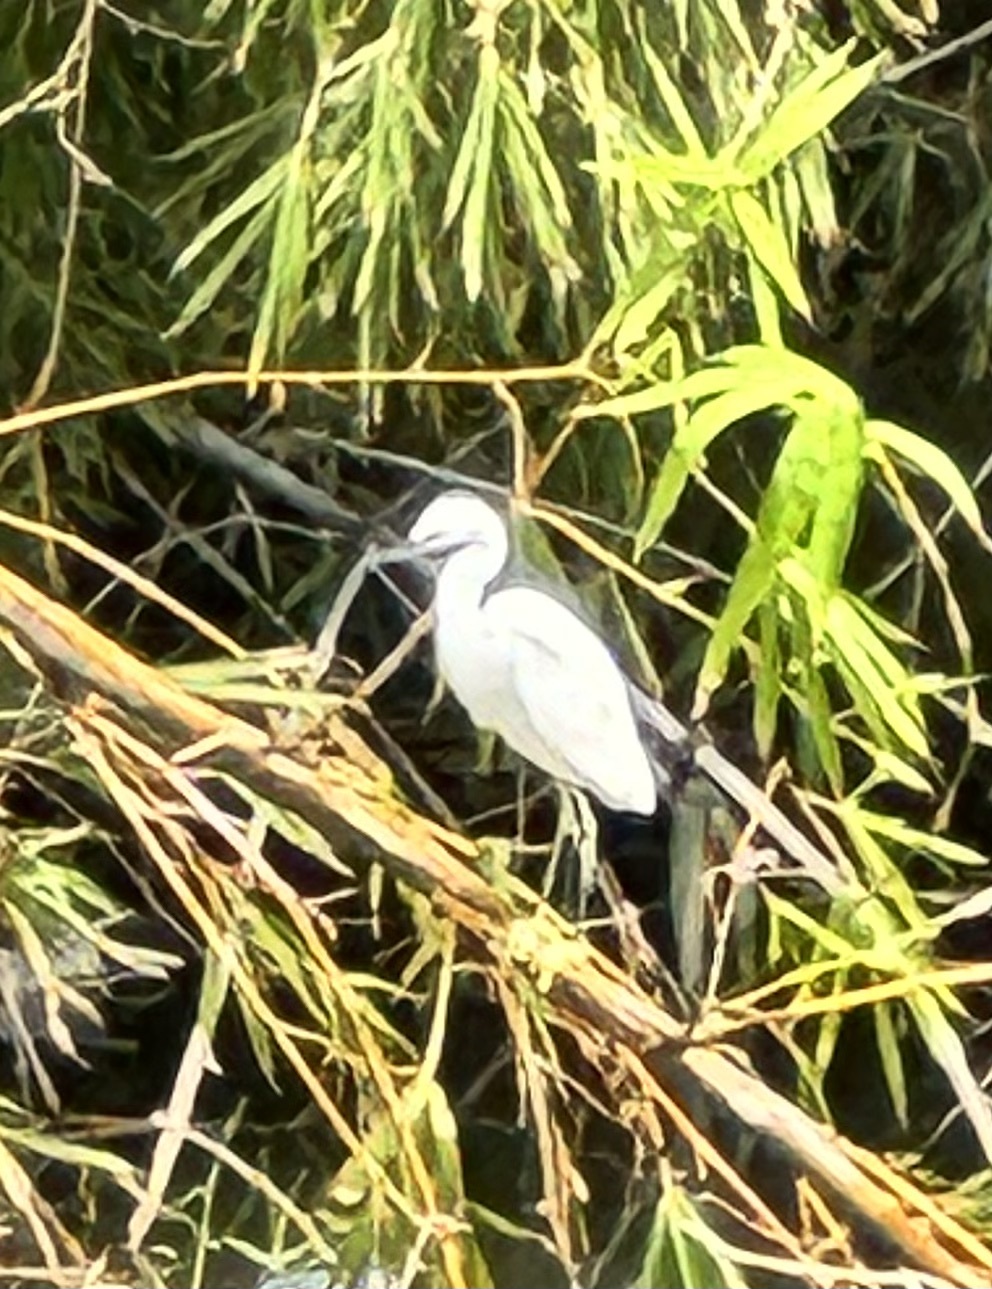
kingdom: Animalia
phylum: Chordata
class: Aves
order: Pelecaniformes
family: Ardeidae
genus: Egretta
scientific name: Egretta thula
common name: Snowy egret
